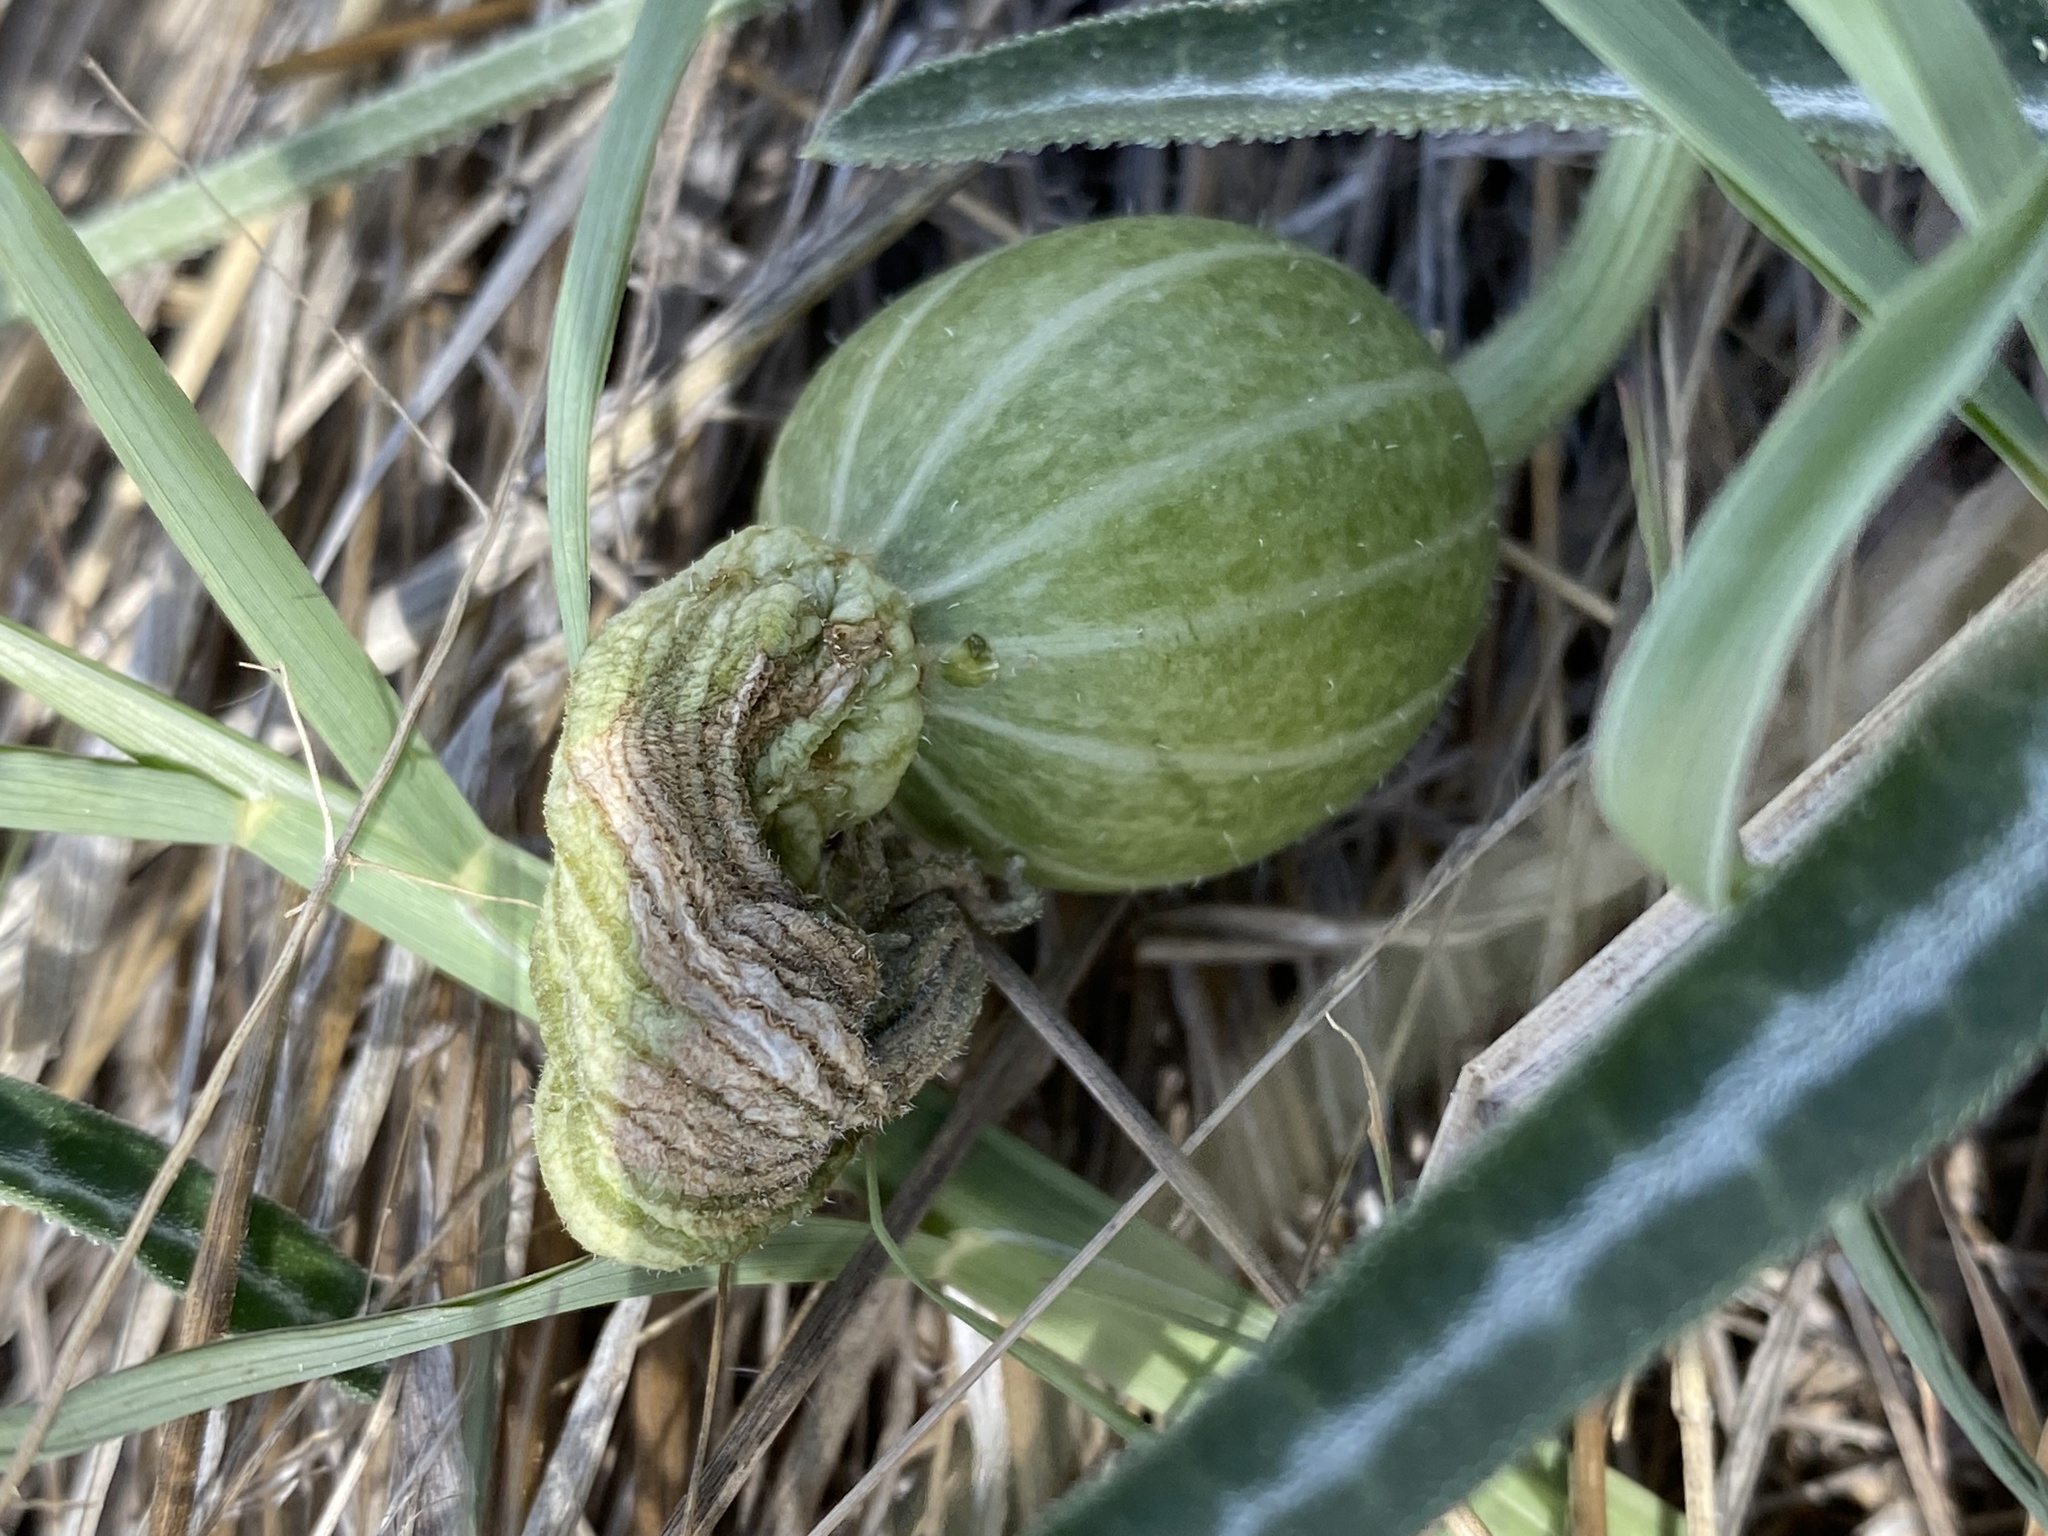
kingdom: Plantae
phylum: Tracheophyta
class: Magnoliopsida
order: Cucurbitales
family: Cucurbitaceae
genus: Cucurbita
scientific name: Cucurbita digitata
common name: Finger-leaf gourd
